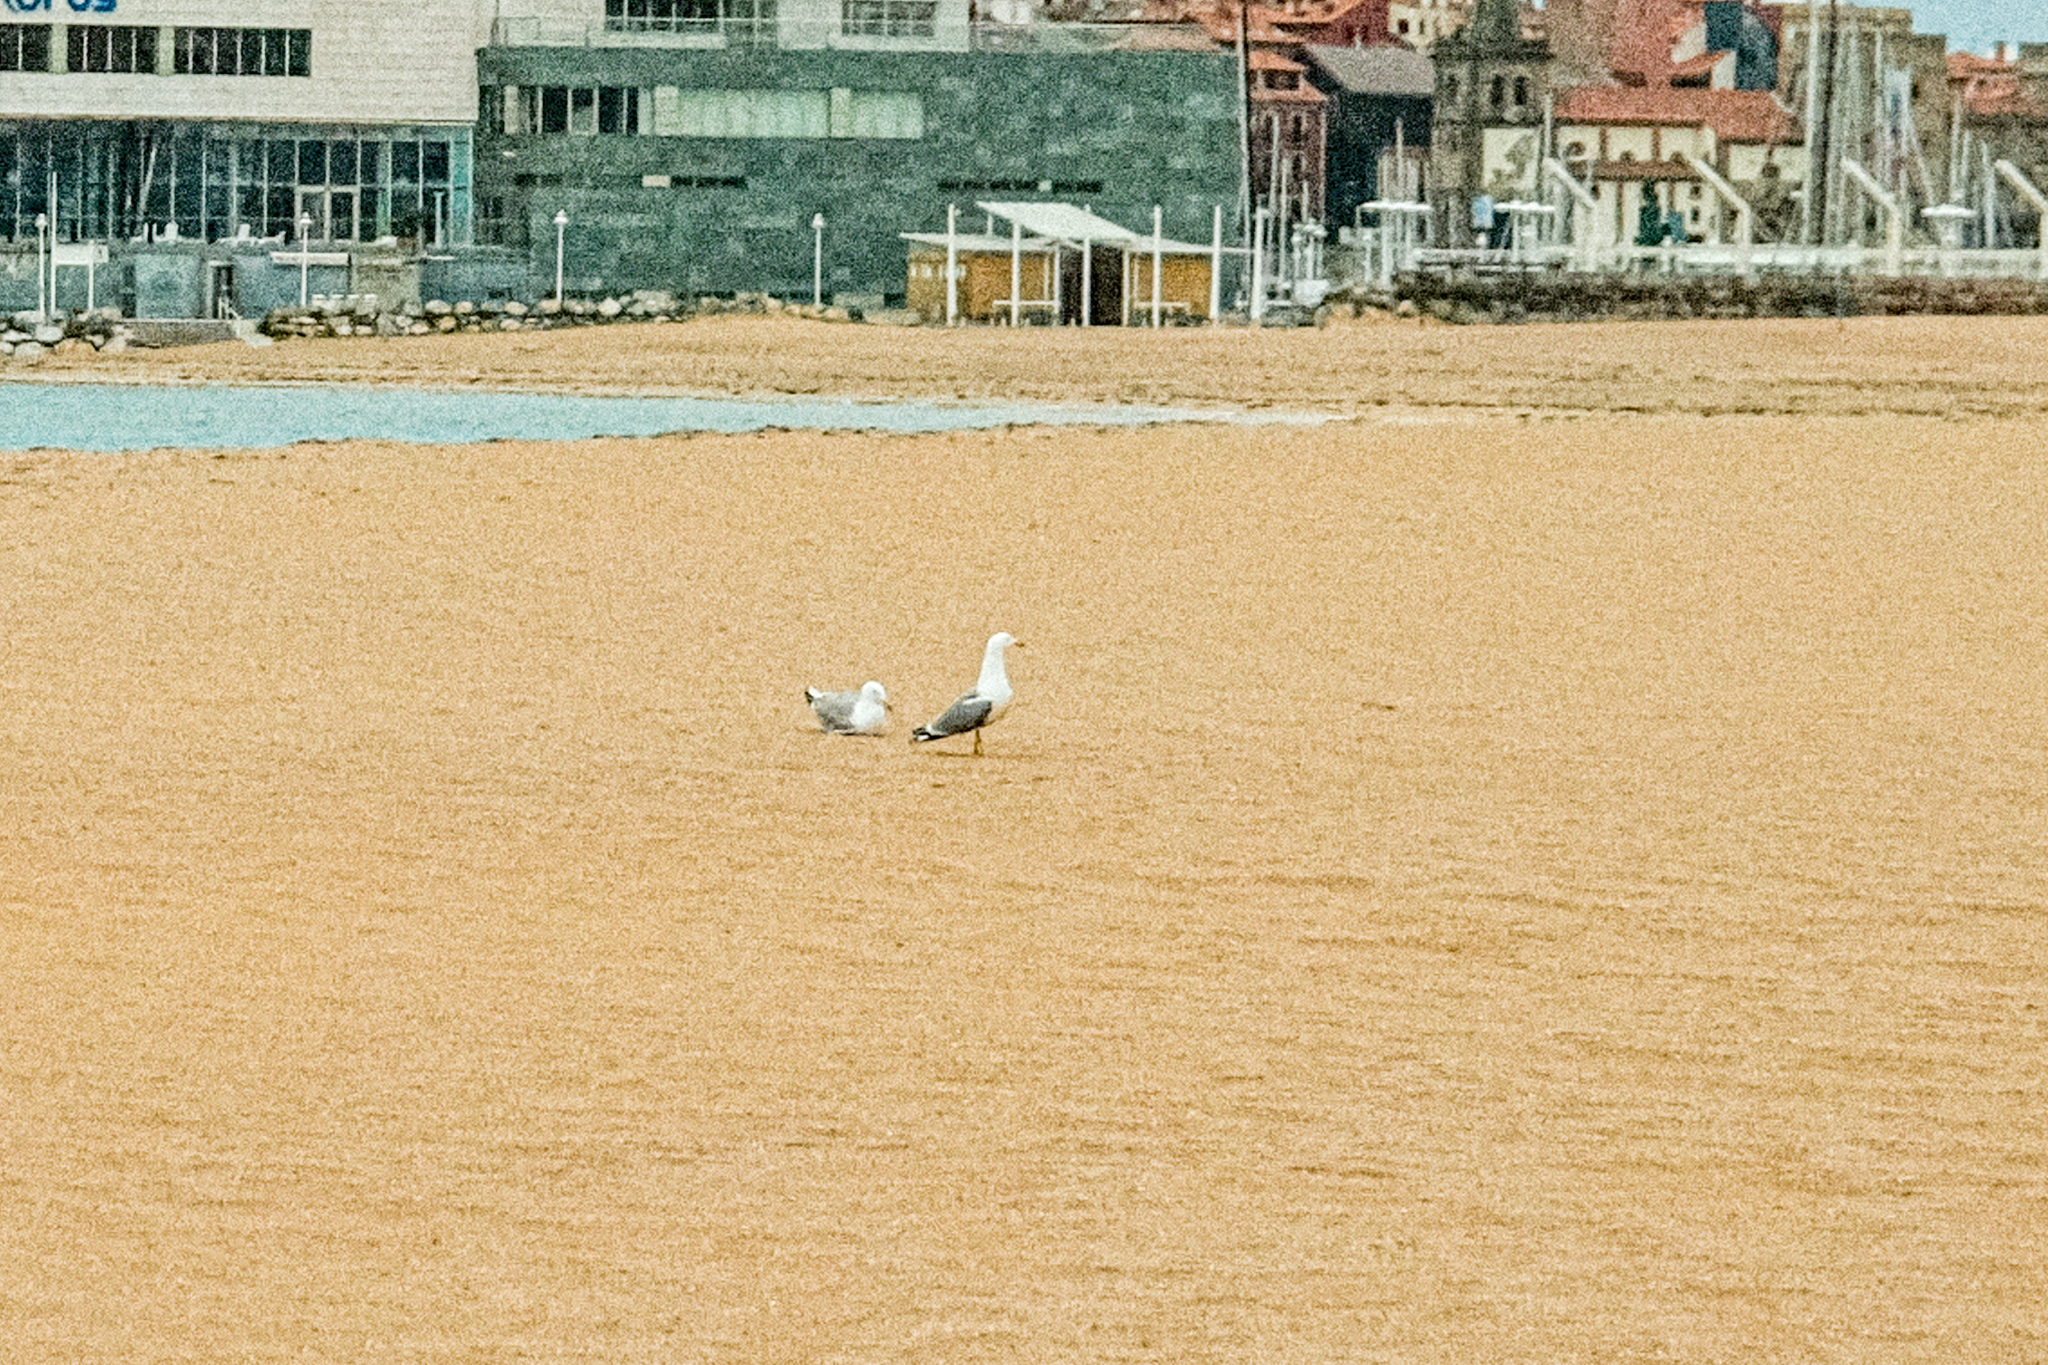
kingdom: Animalia
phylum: Chordata
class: Aves
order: Charadriiformes
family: Laridae
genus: Larus
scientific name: Larus fuscus
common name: Lesser black-backed gull
